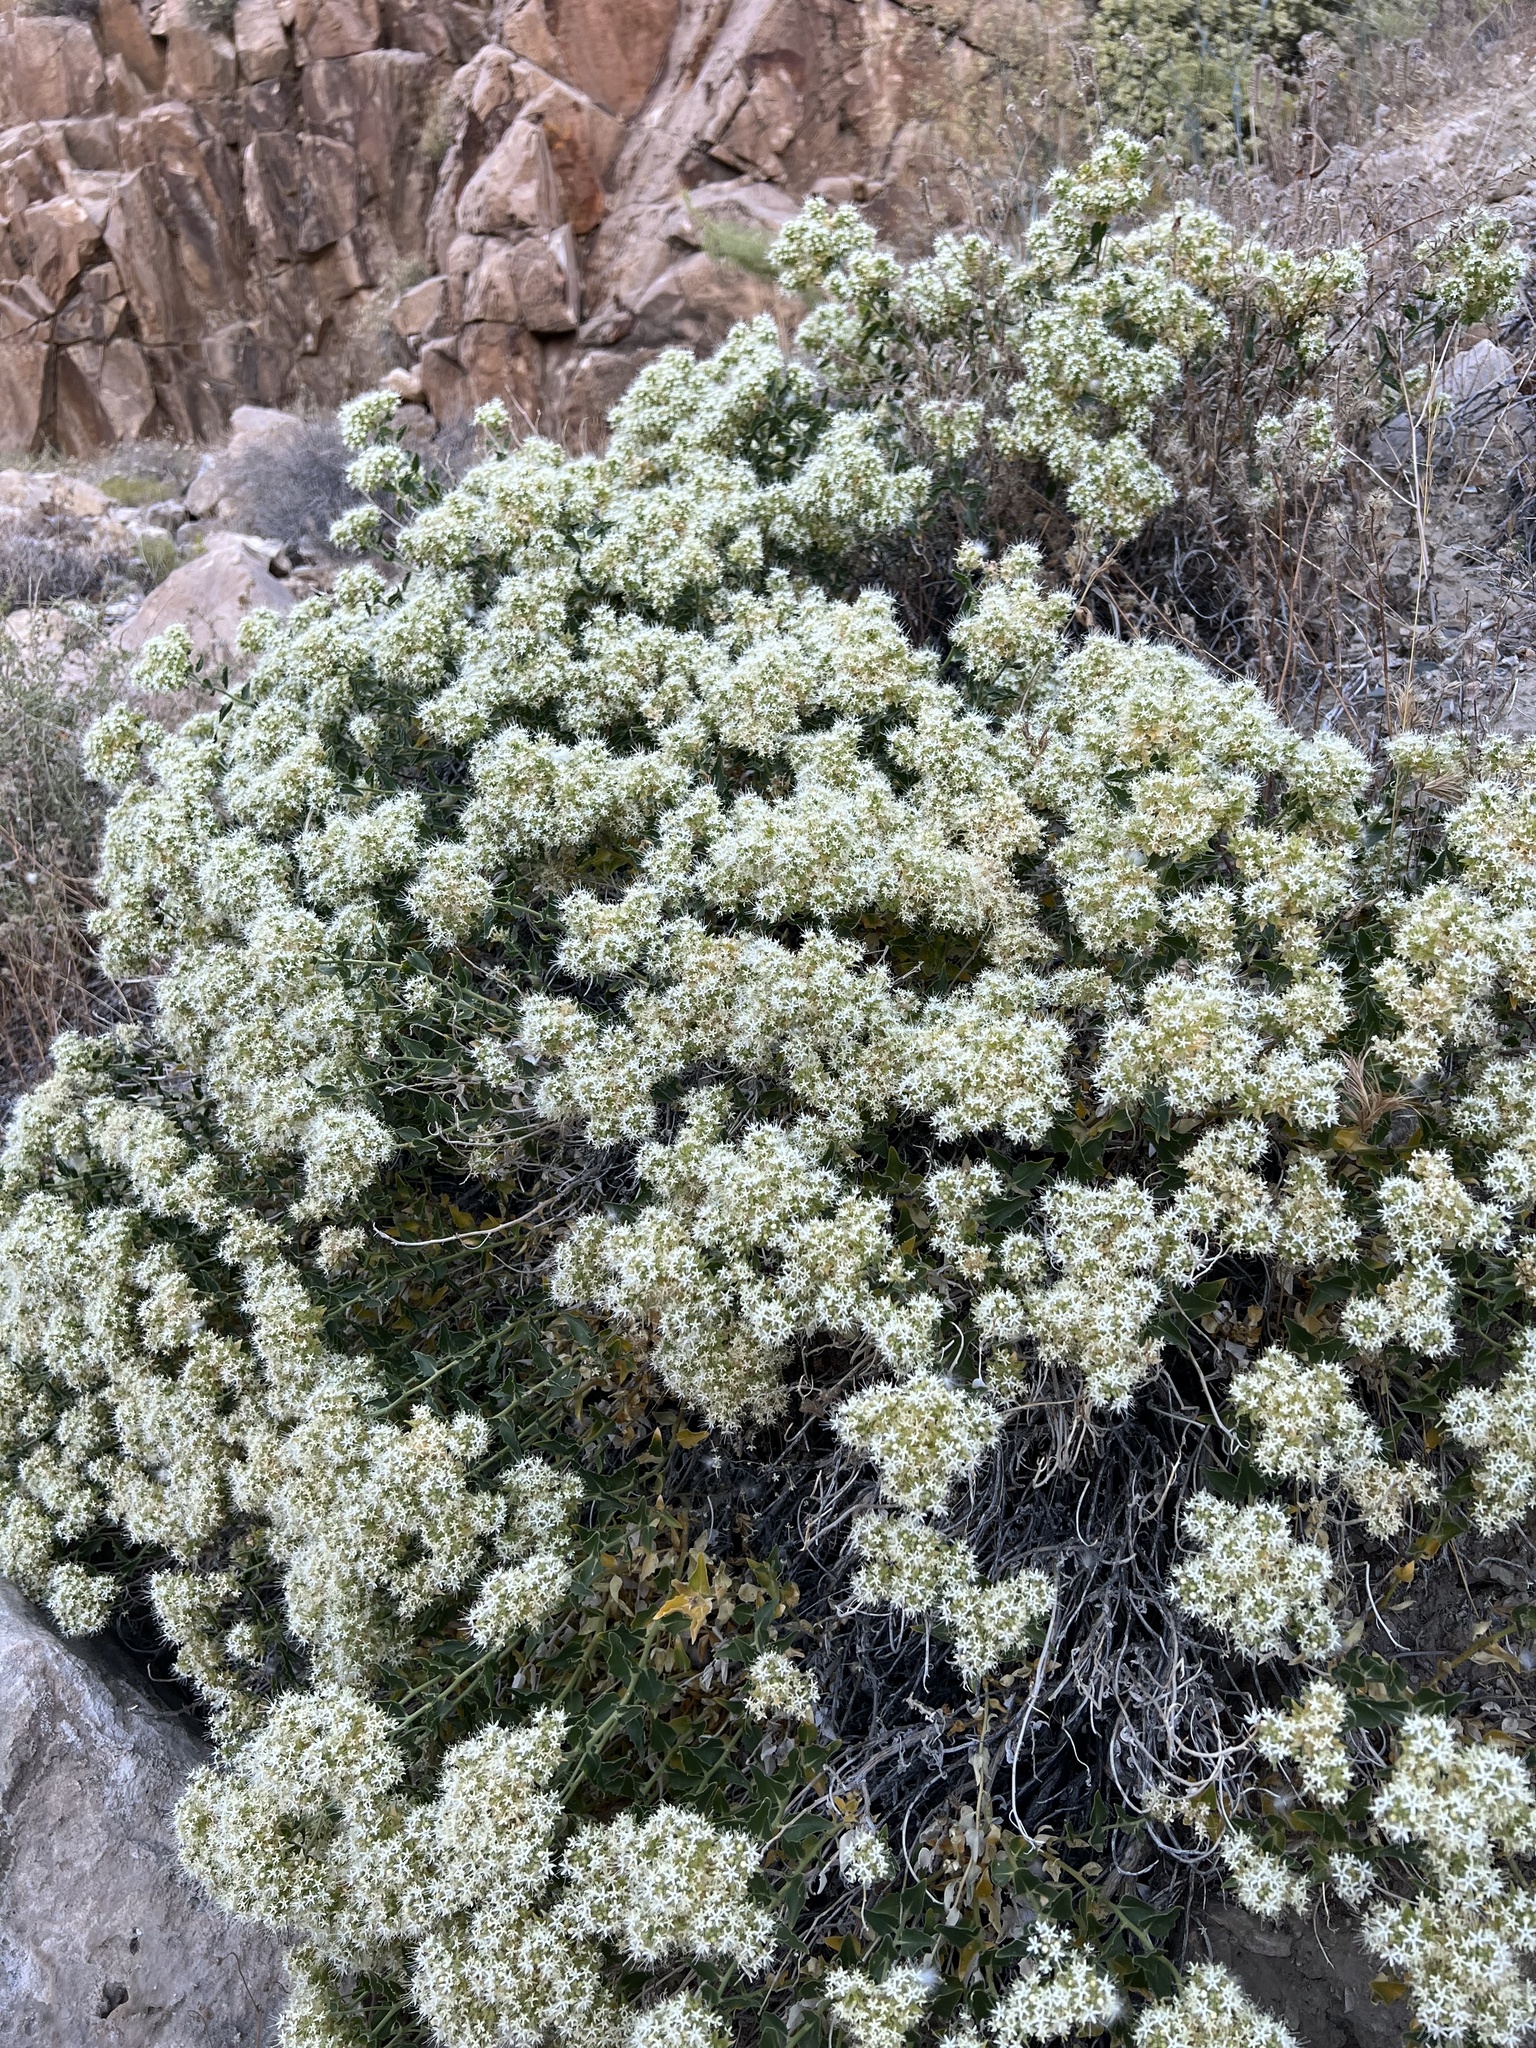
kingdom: Plantae
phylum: Tracheophyta
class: Magnoliopsida
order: Cornales
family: Loasaceae
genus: Petalonyx
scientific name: Petalonyx nitidus
